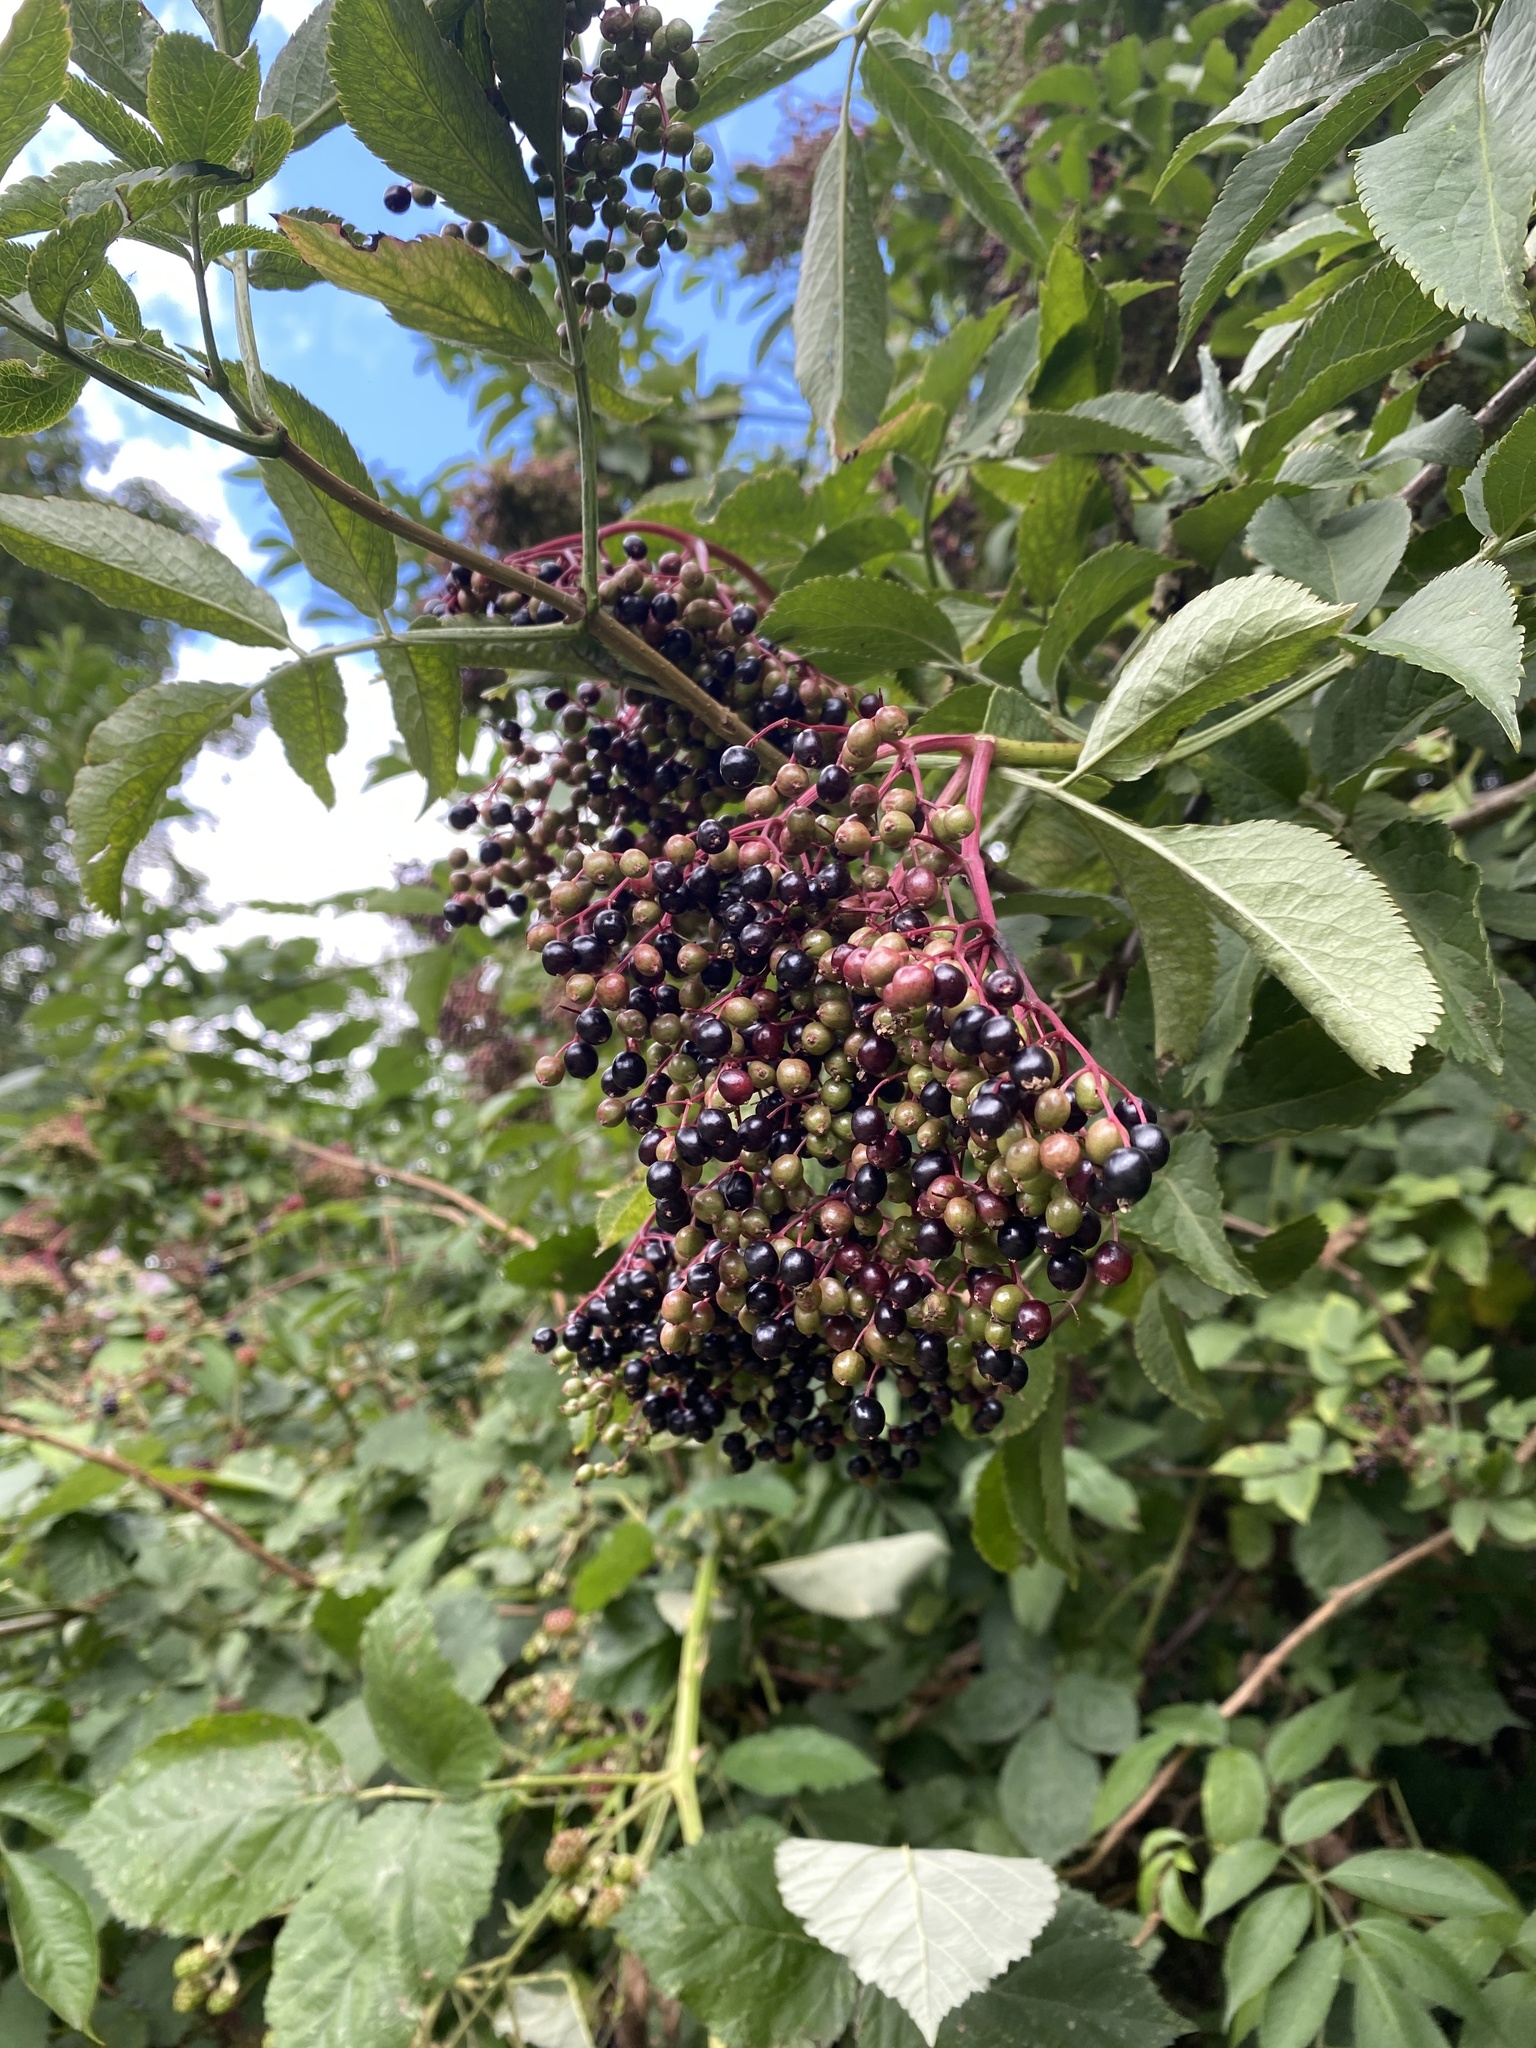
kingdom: Plantae
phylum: Tracheophyta
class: Magnoliopsida
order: Dipsacales
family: Viburnaceae
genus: Sambucus
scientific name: Sambucus nigra
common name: Elder
